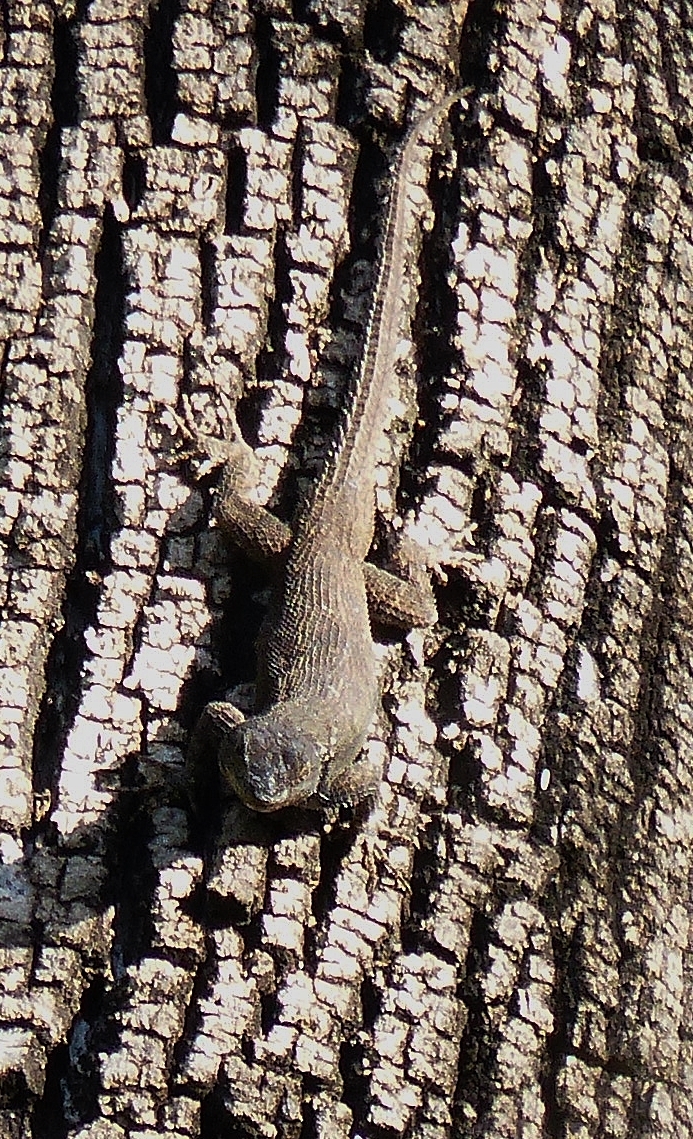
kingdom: Animalia
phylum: Chordata
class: Squamata
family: Phrynosomatidae
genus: Sceloporus
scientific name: Sceloporus grammicus
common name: Mesquite lizard
